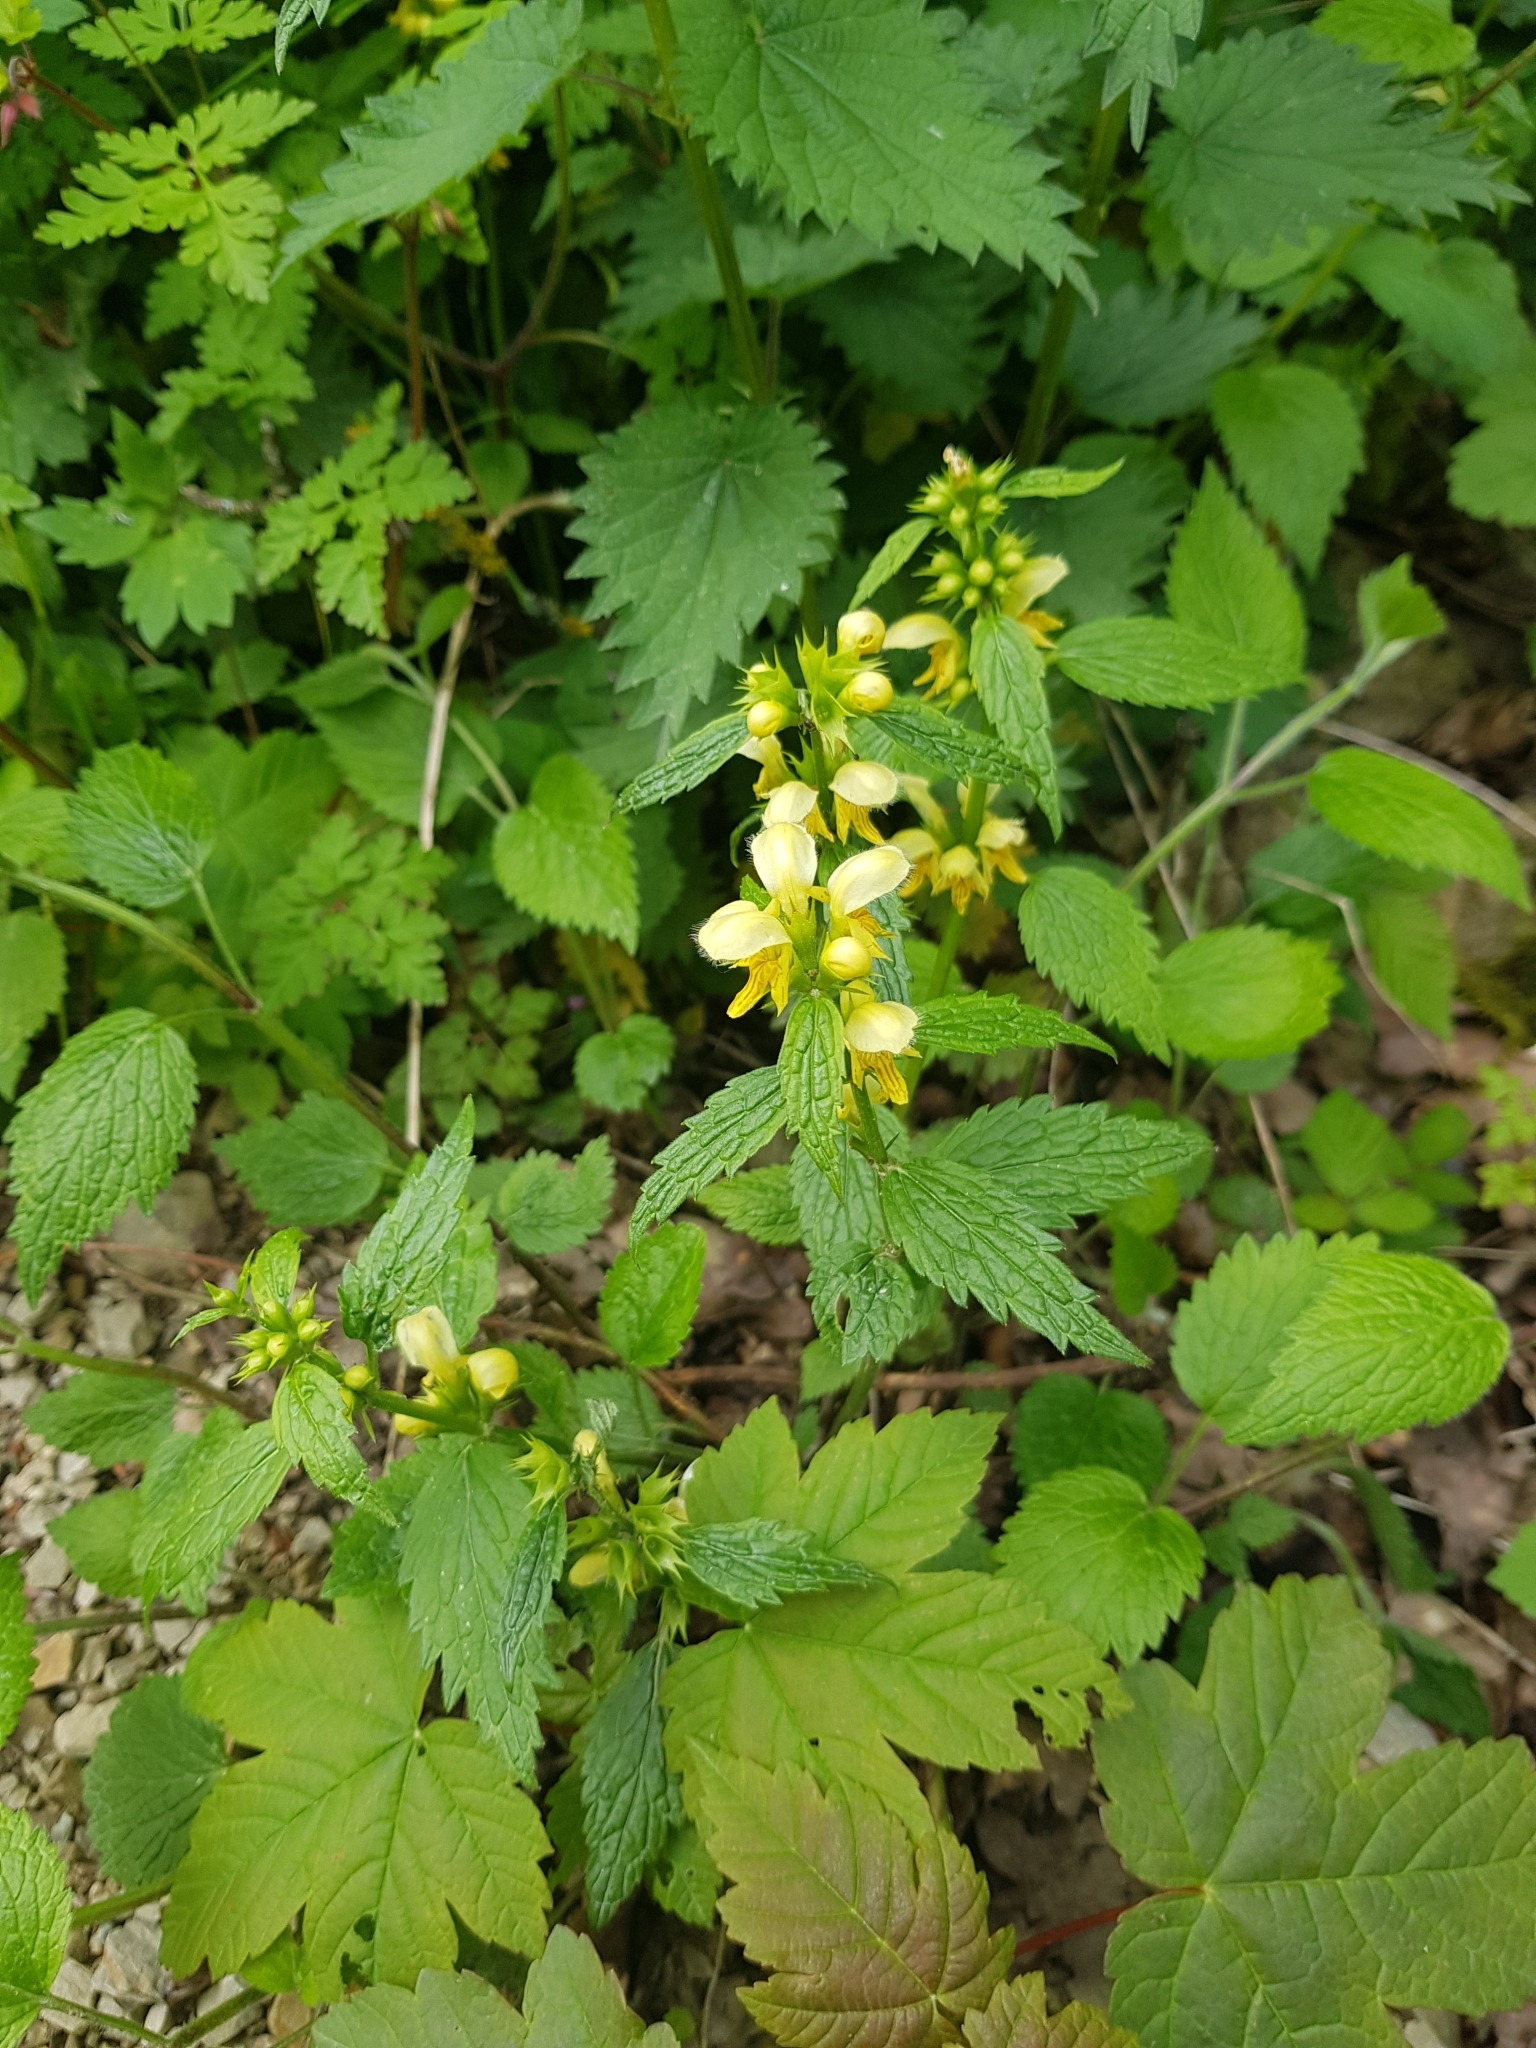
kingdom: Plantae
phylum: Tracheophyta
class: Magnoliopsida
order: Lamiales
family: Lamiaceae
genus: Lamium
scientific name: Lamium galeobdolon
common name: Yellow archangel
